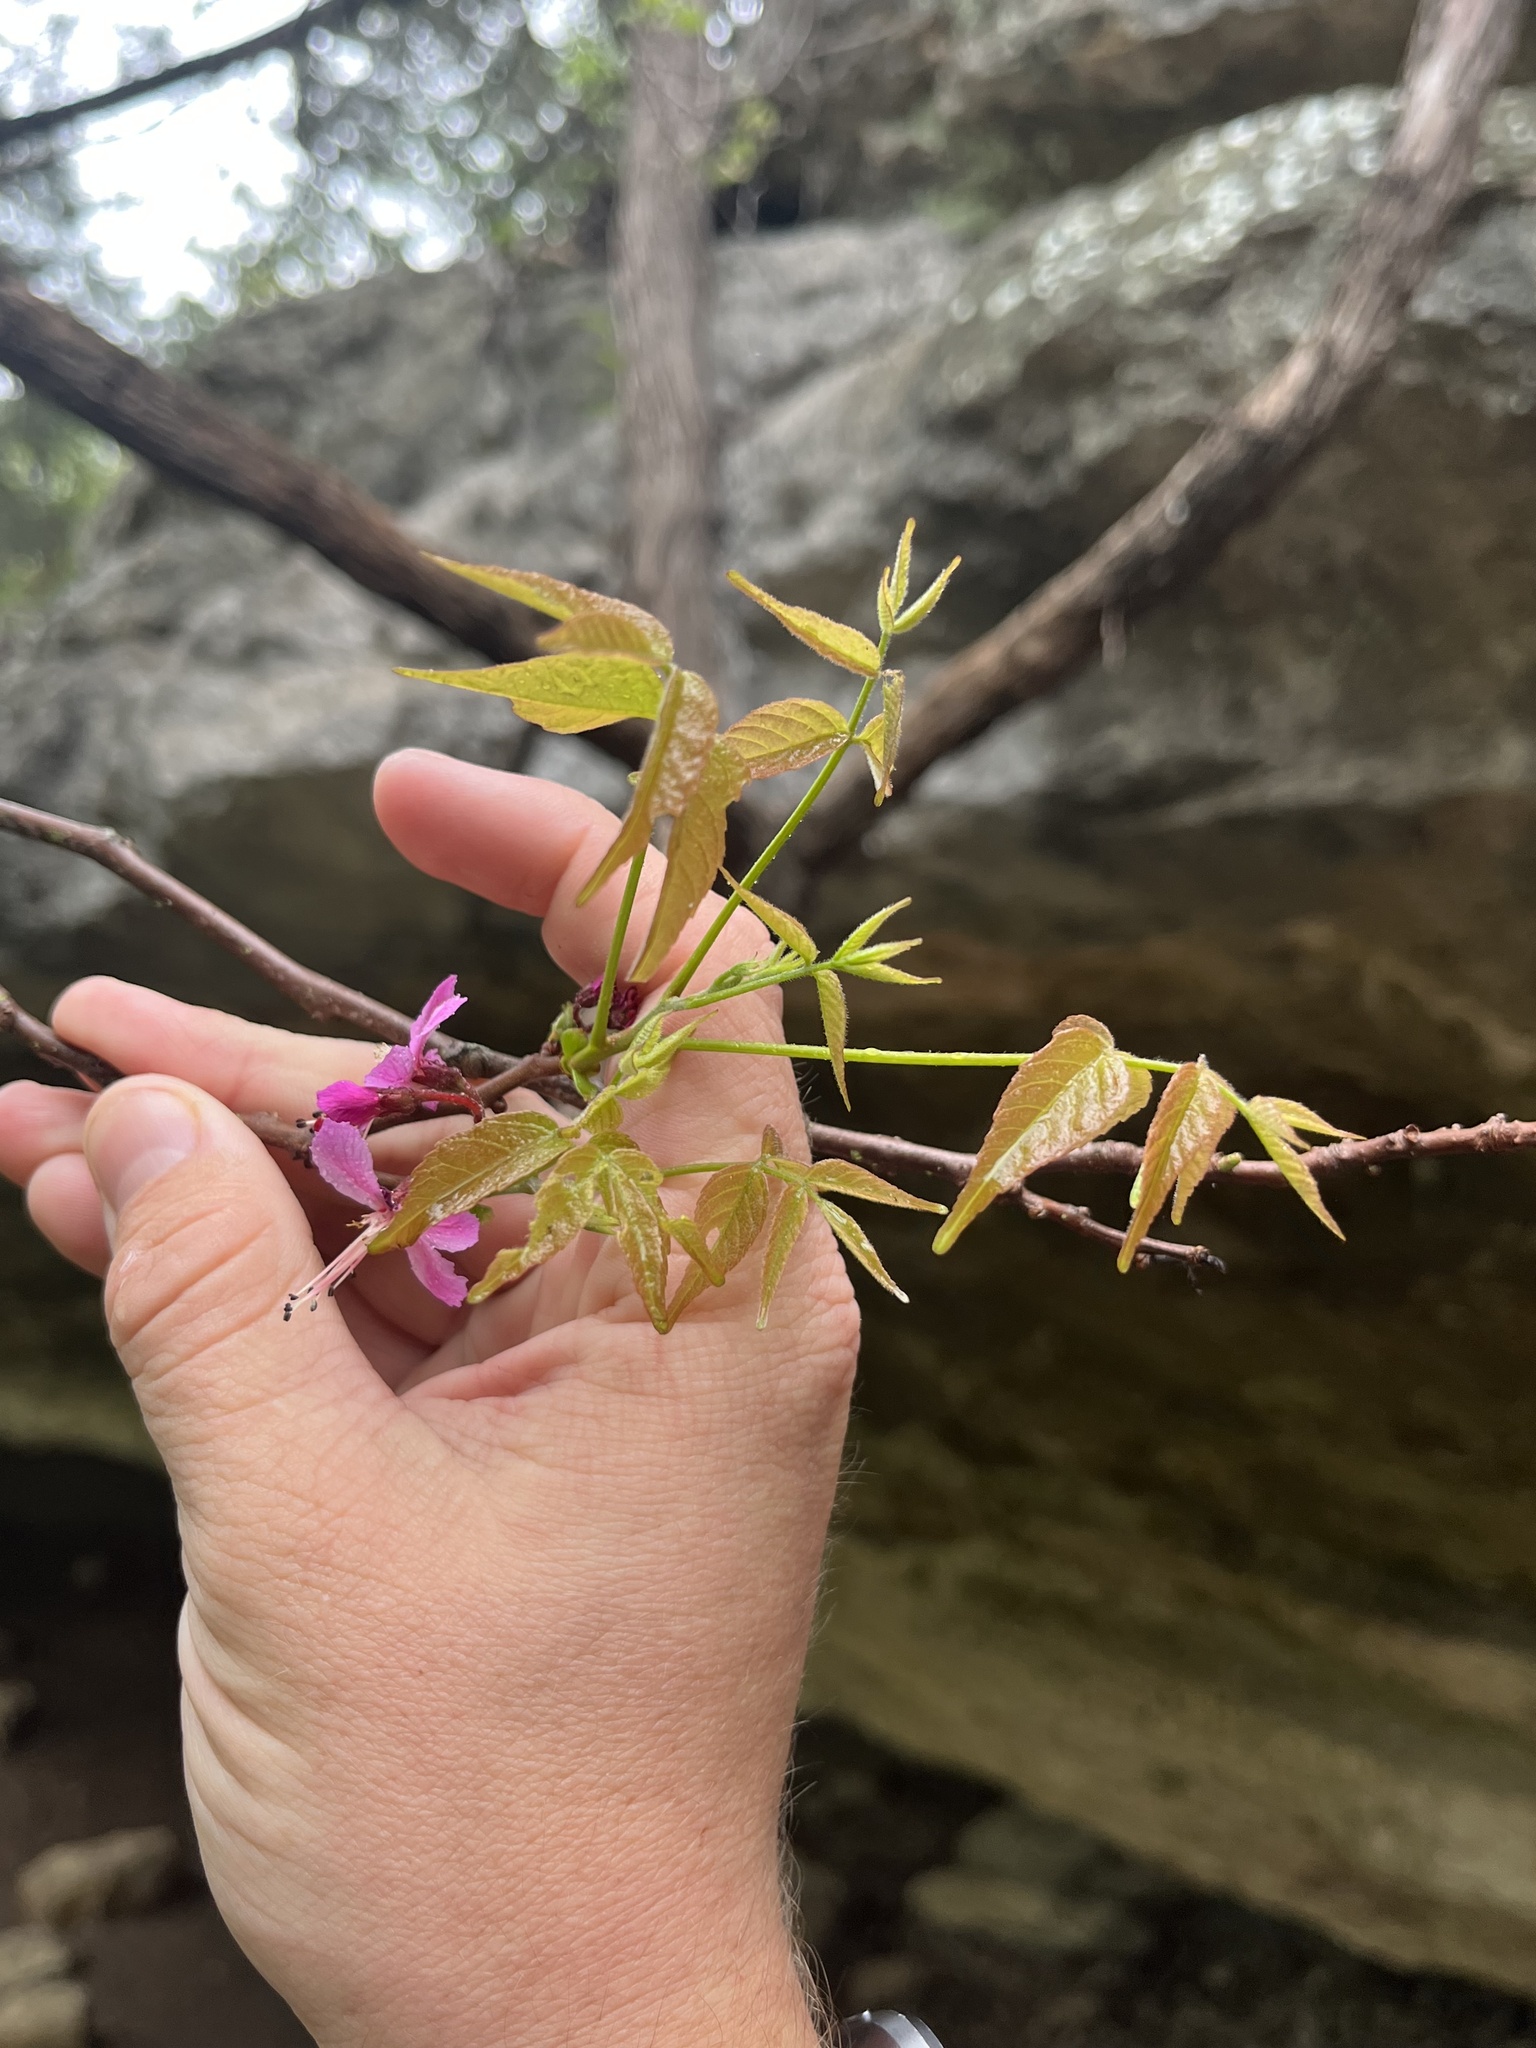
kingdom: Plantae
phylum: Tracheophyta
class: Magnoliopsida
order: Sapindales
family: Sapindaceae
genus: Ungnadia
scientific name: Ungnadia speciosa
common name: Texas-buckeye
